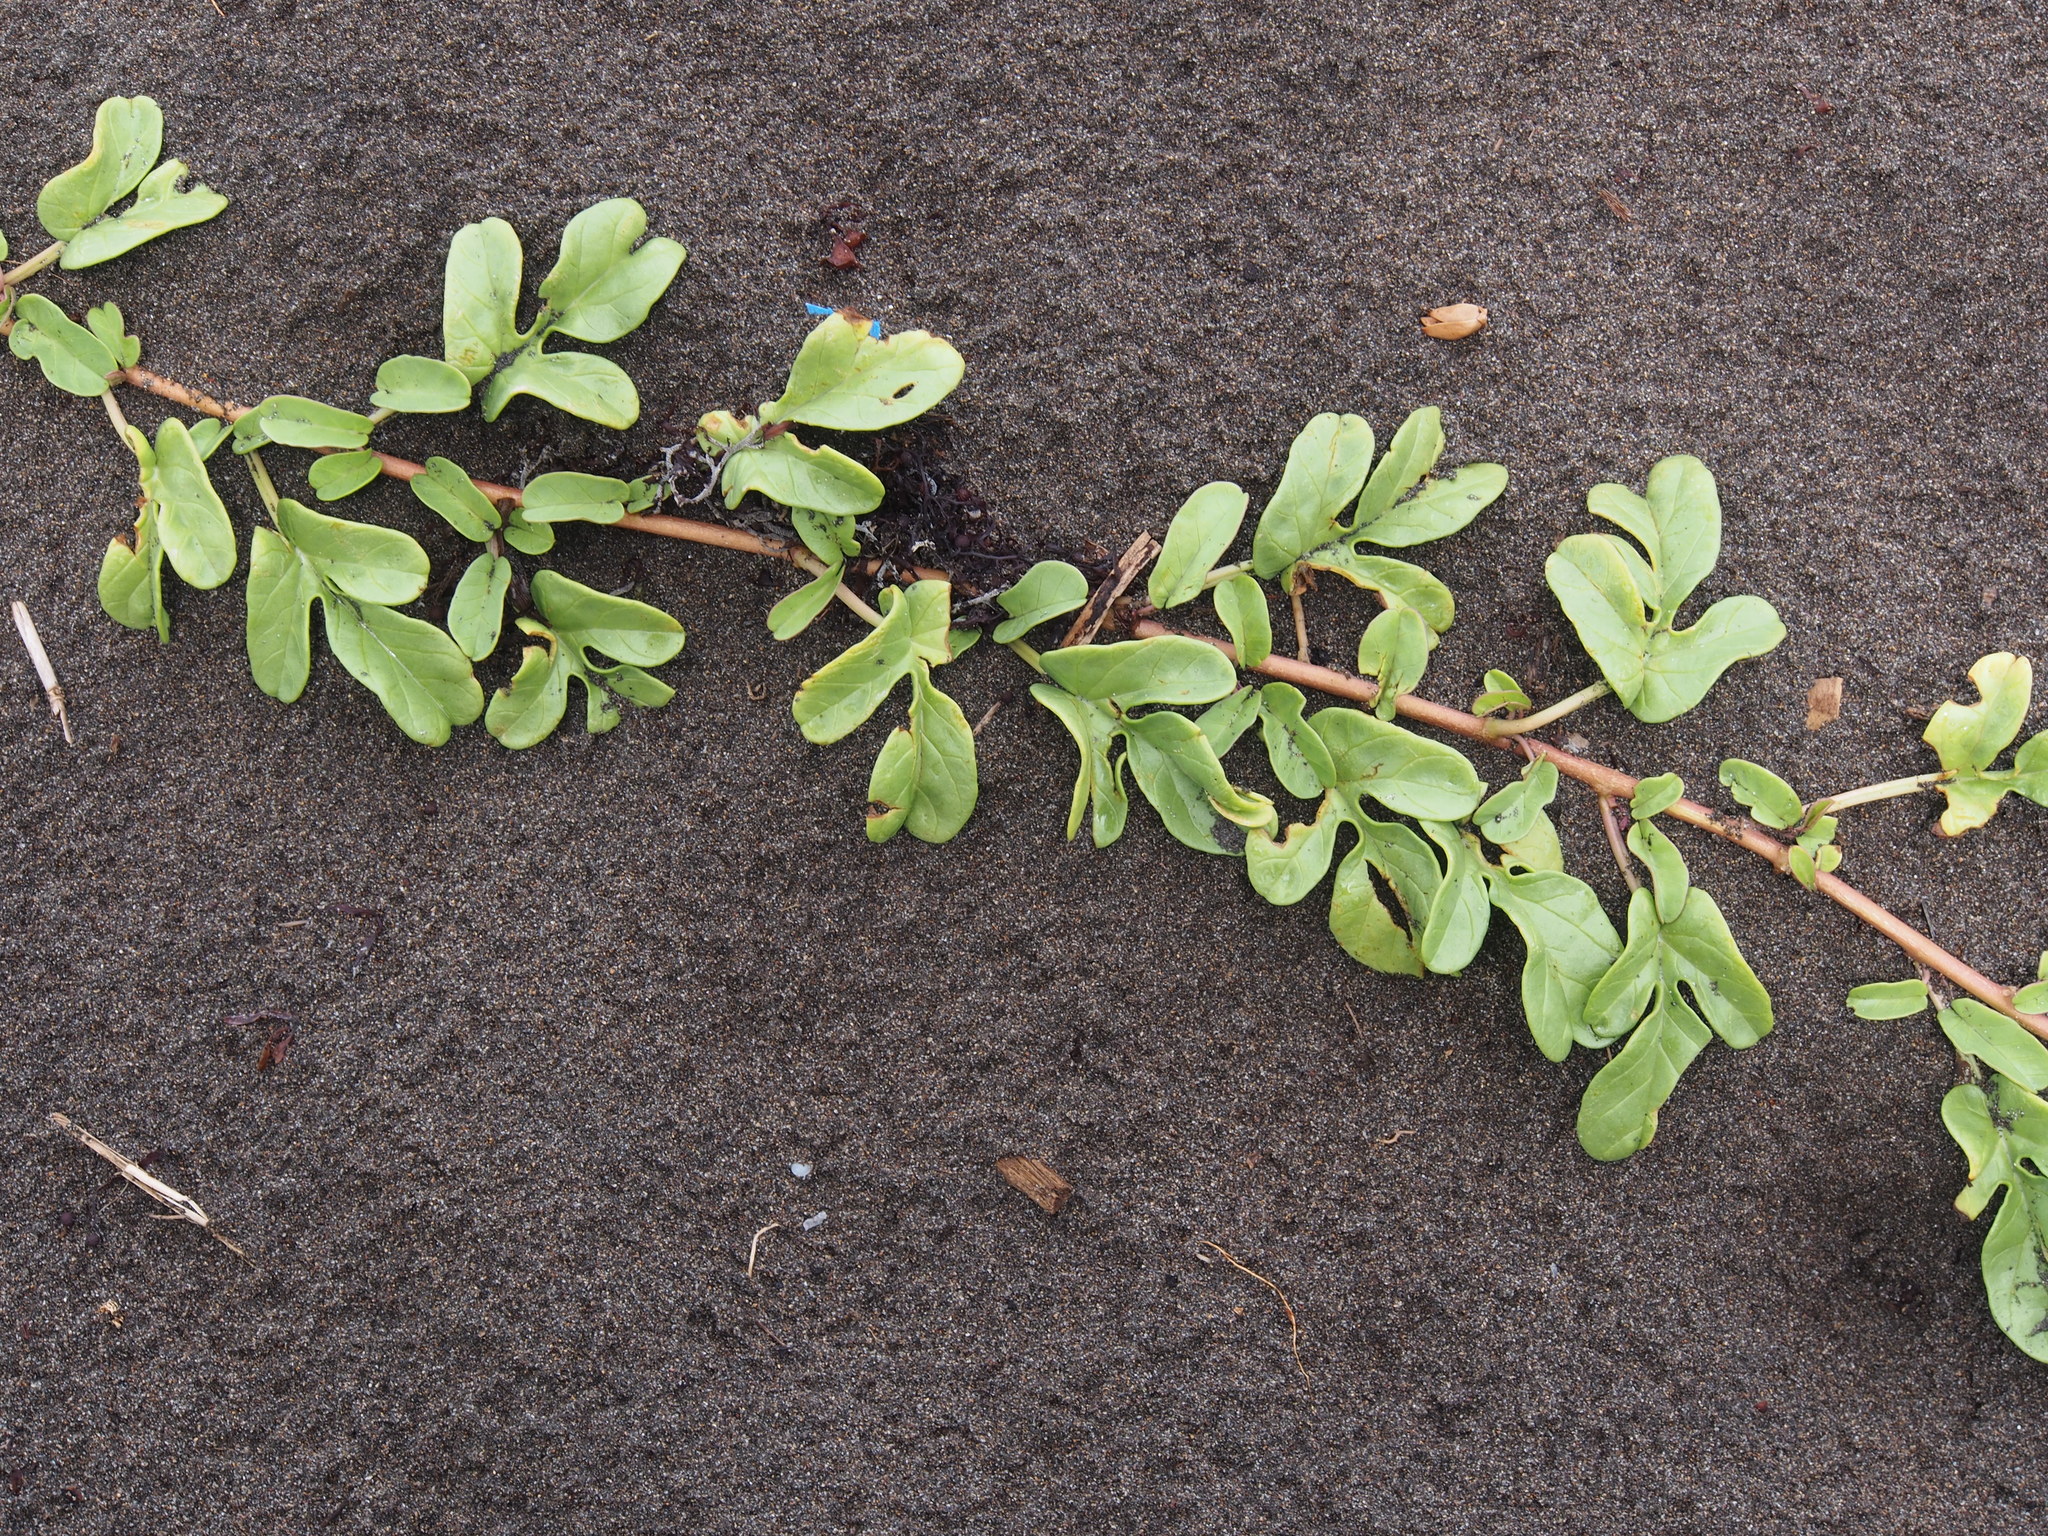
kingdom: Plantae
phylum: Tracheophyta
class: Magnoliopsida
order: Solanales
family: Convolvulaceae
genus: Ipomoea
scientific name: Ipomoea imperati
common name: Fiddle-leaf morning-glory
